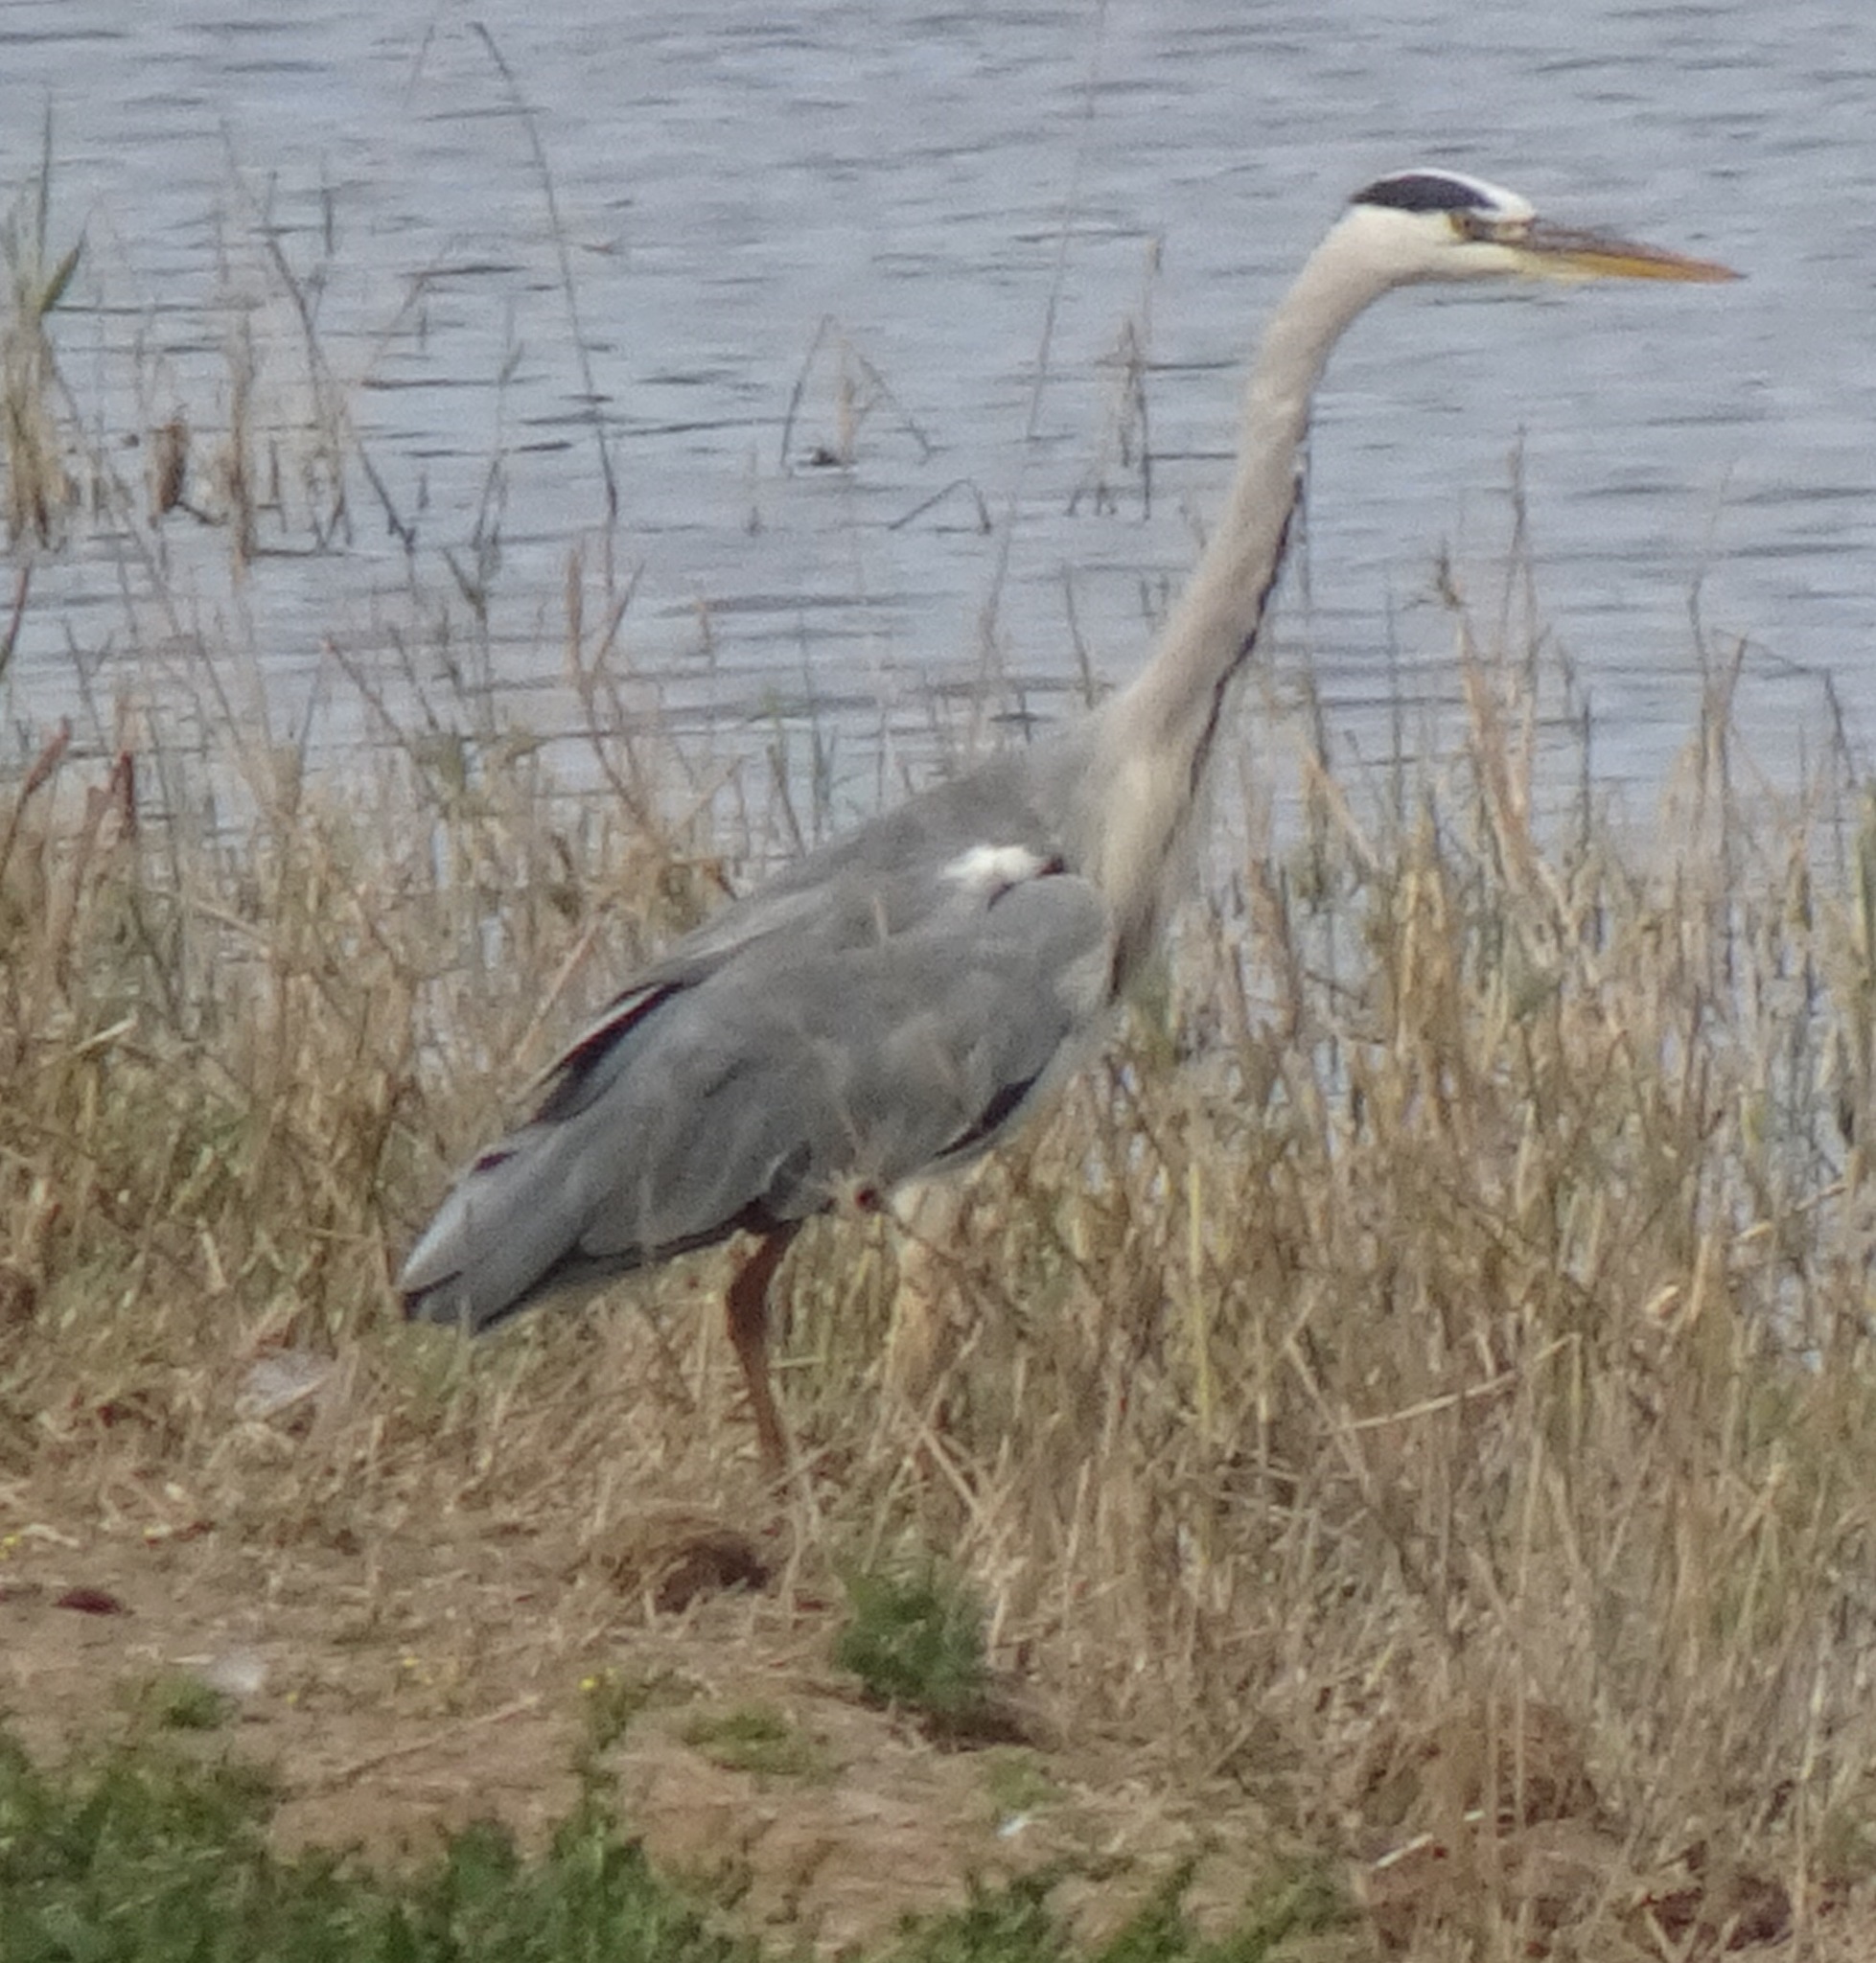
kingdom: Animalia
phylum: Chordata
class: Aves
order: Pelecaniformes
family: Ardeidae
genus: Ardea
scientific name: Ardea cinerea
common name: Grey heron
